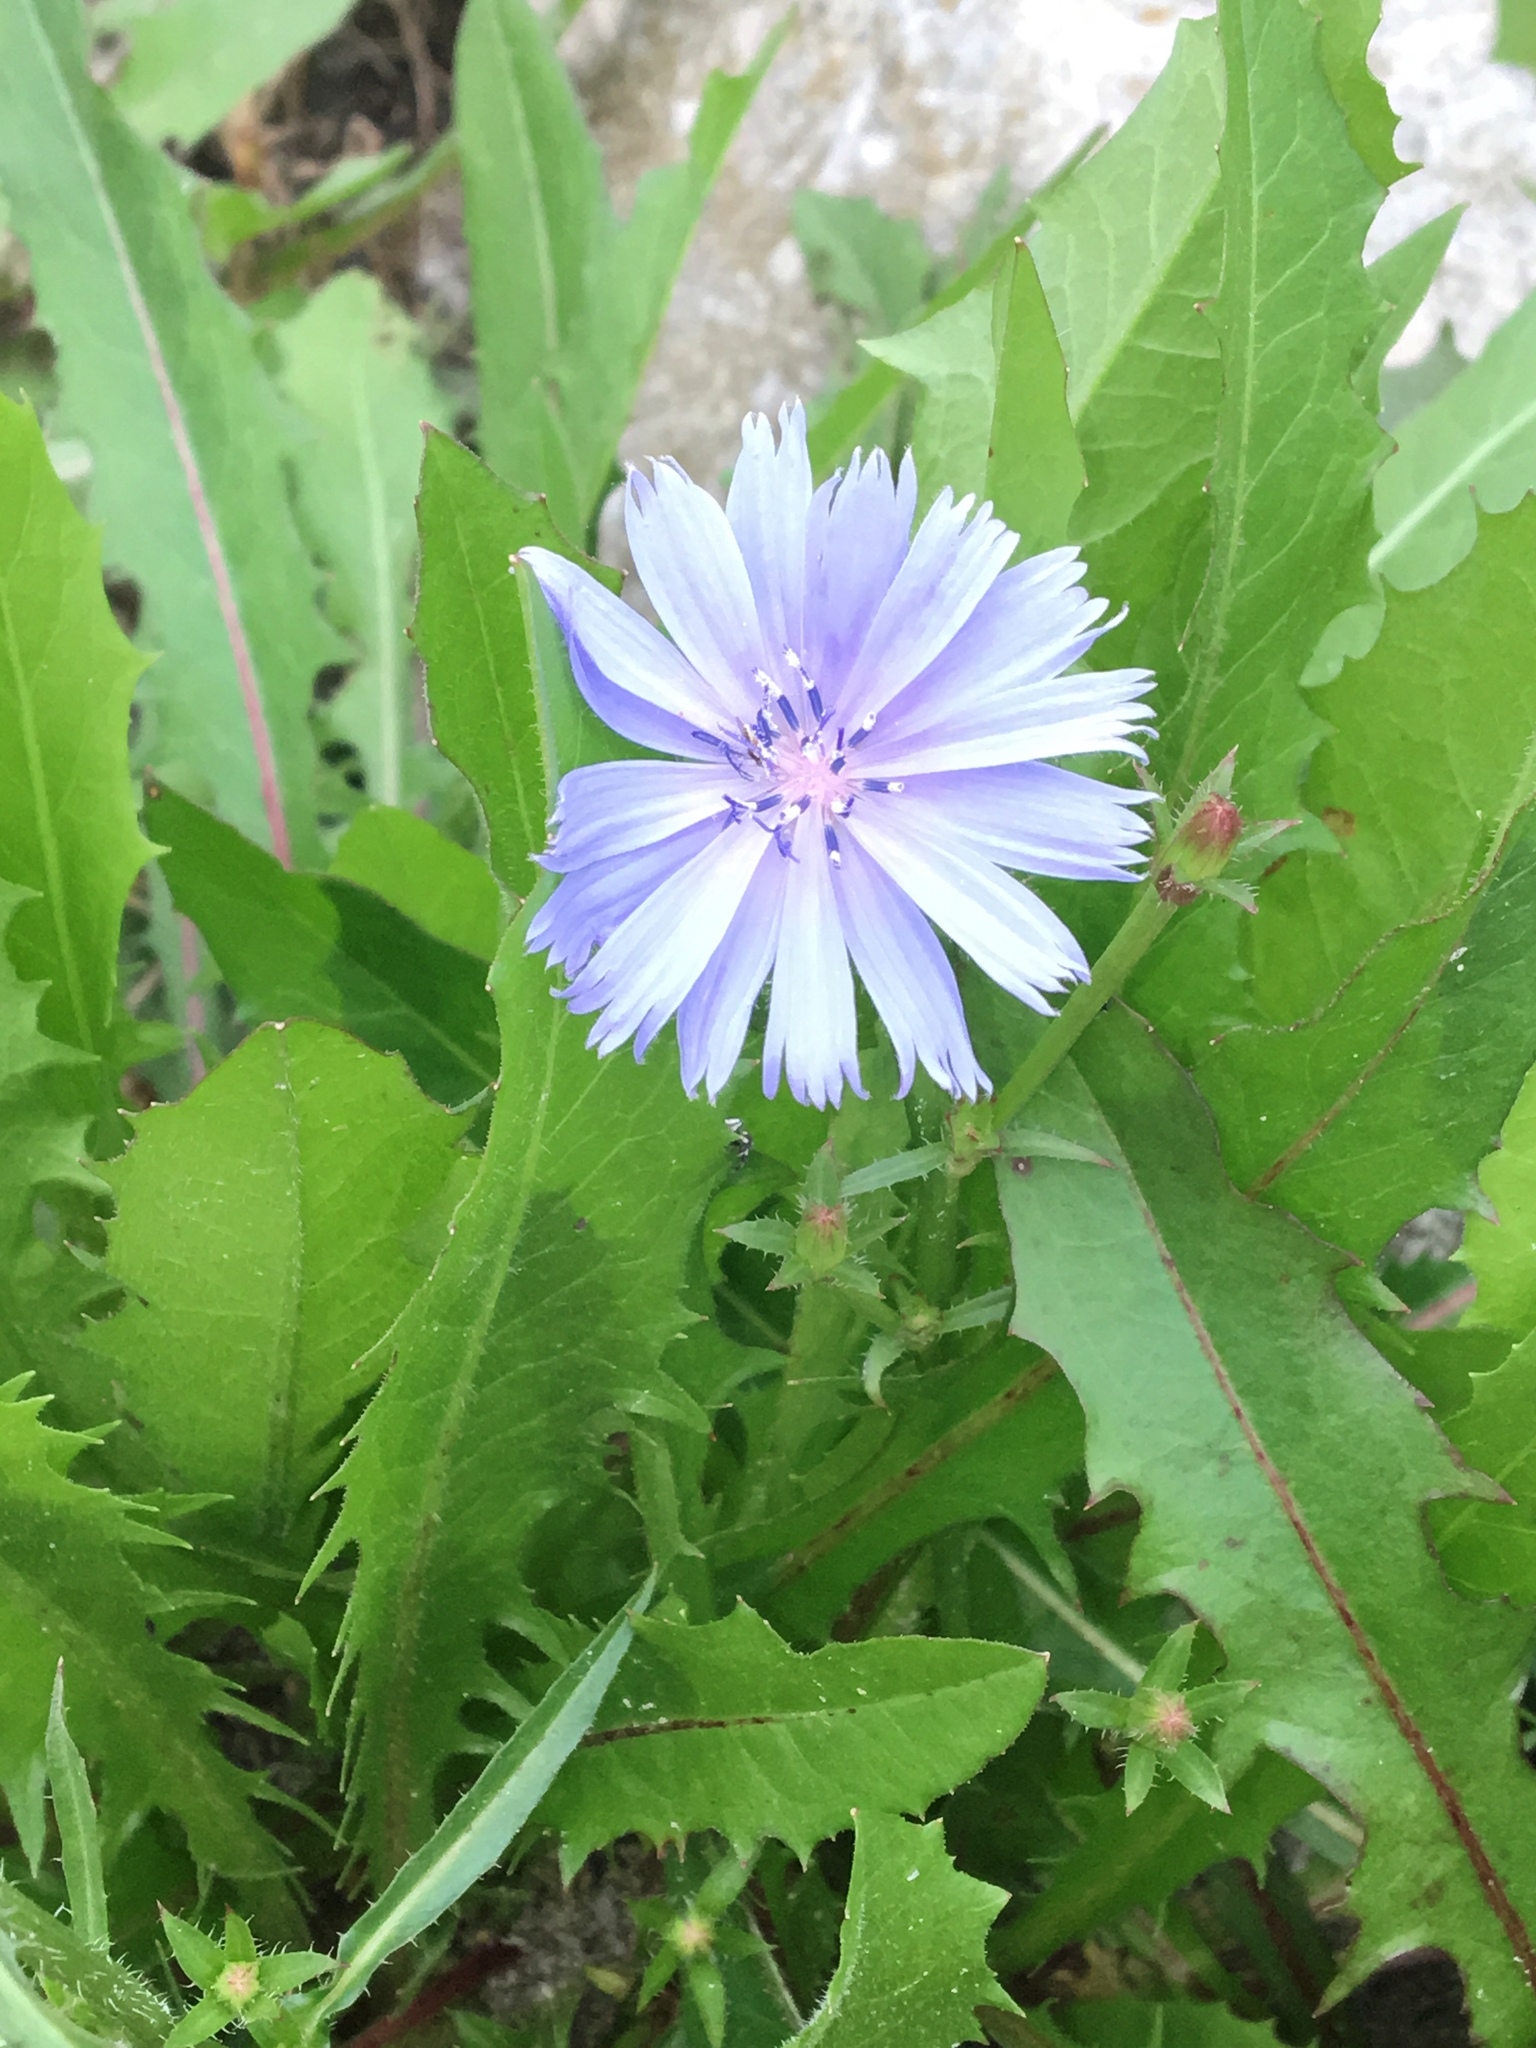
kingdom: Plantae
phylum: Tracheophyta
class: Magnoliopsida
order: Asterales
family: Asteraceae
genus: Cichorium
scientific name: Cichorium intybus
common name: Chicory
